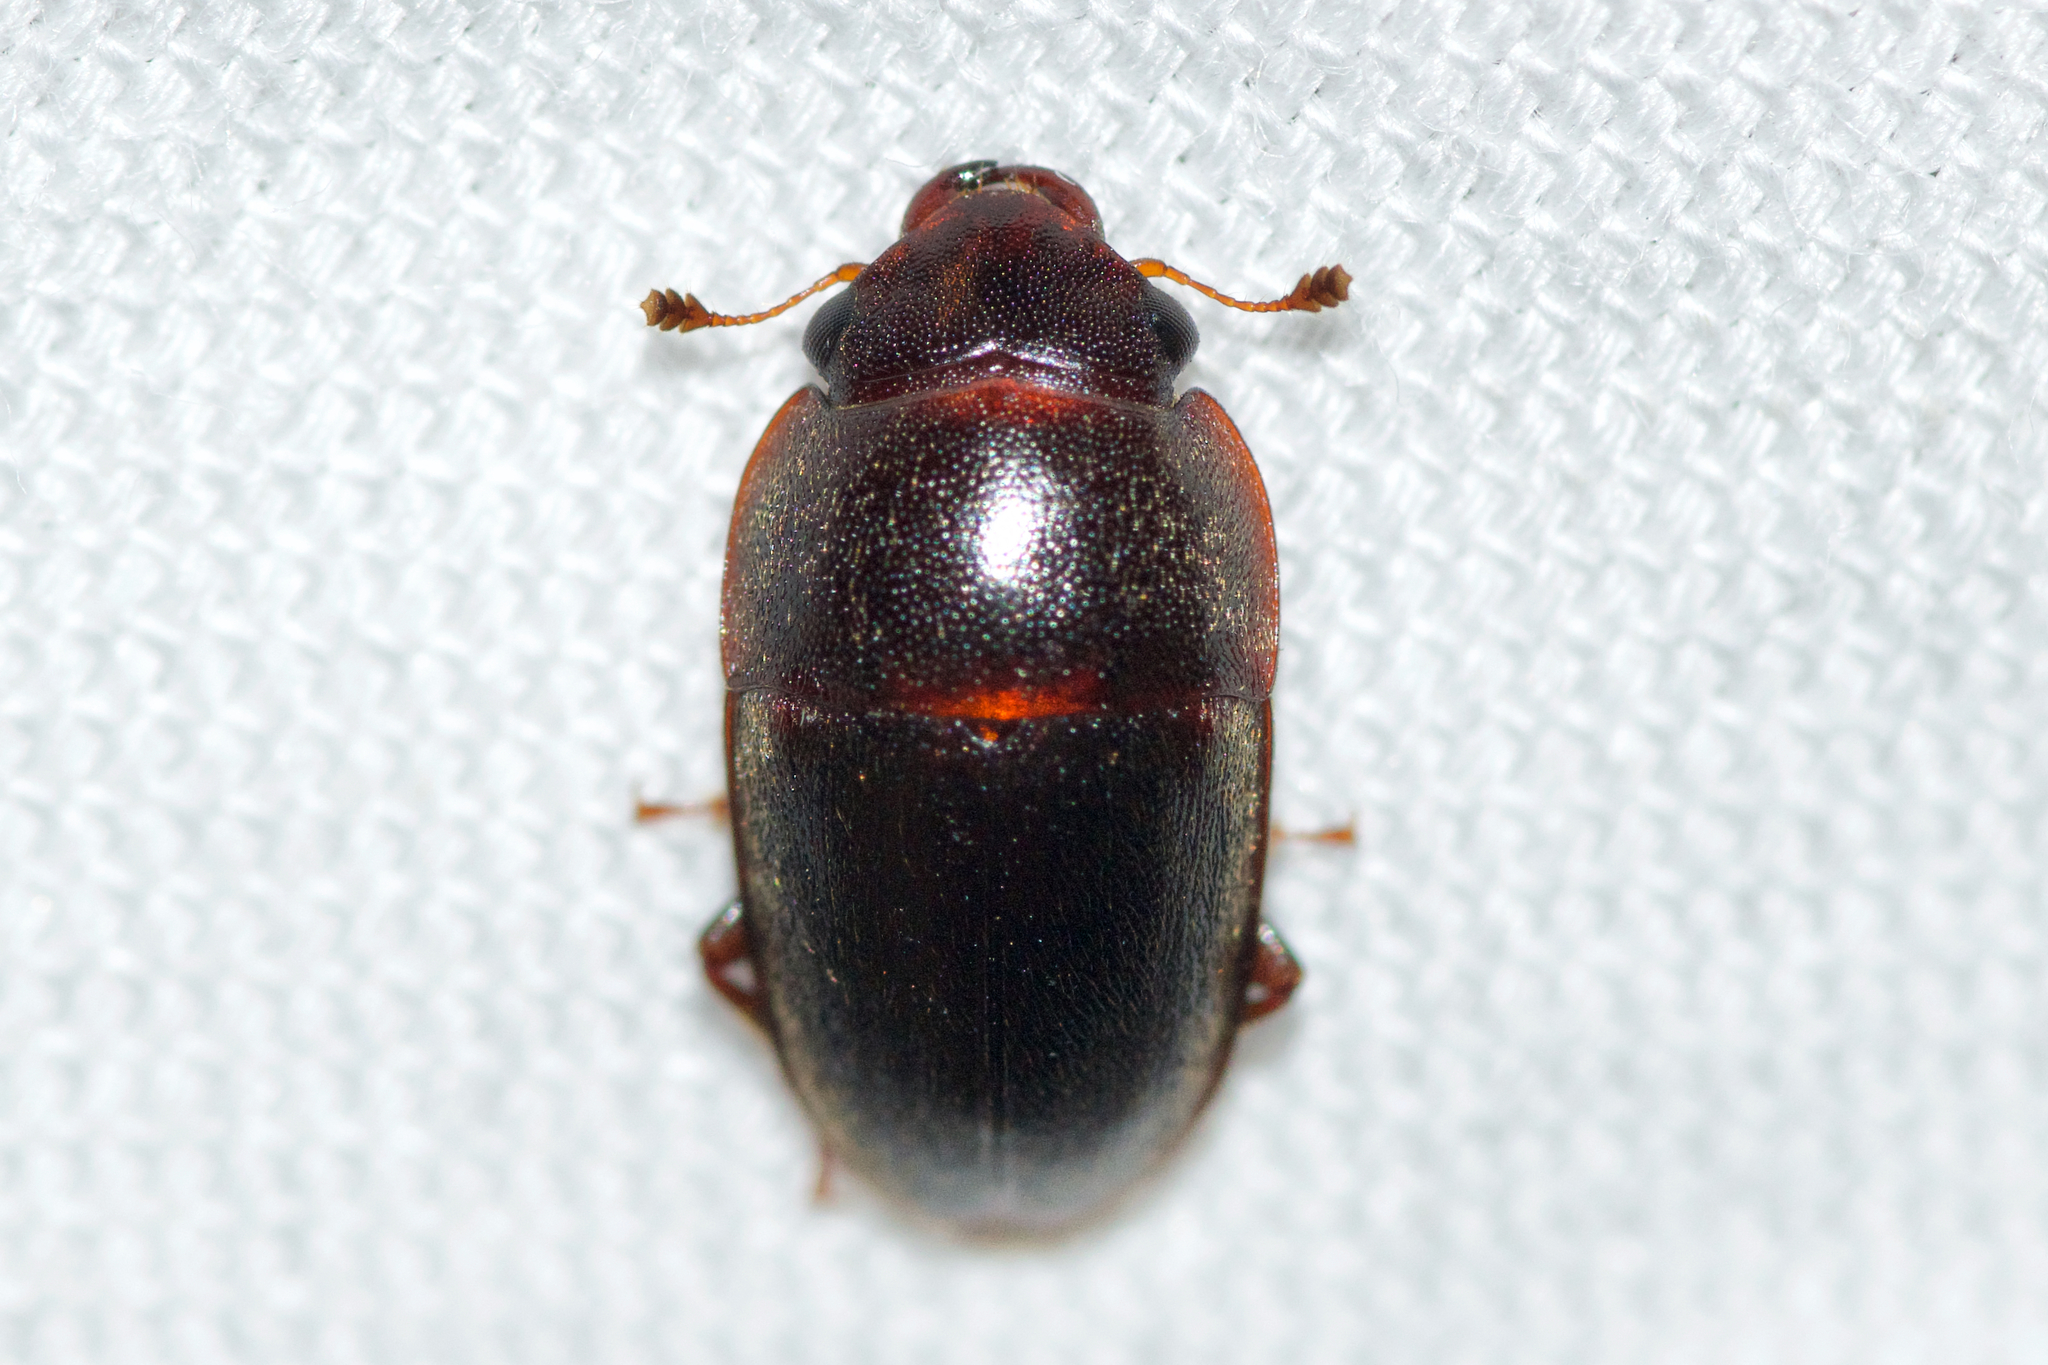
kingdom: Animalia
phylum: Arthropoda
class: Insecta
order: Coleoptera
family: Nitidulidae
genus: Cryptarcha
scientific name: Cryptarcha ampla
